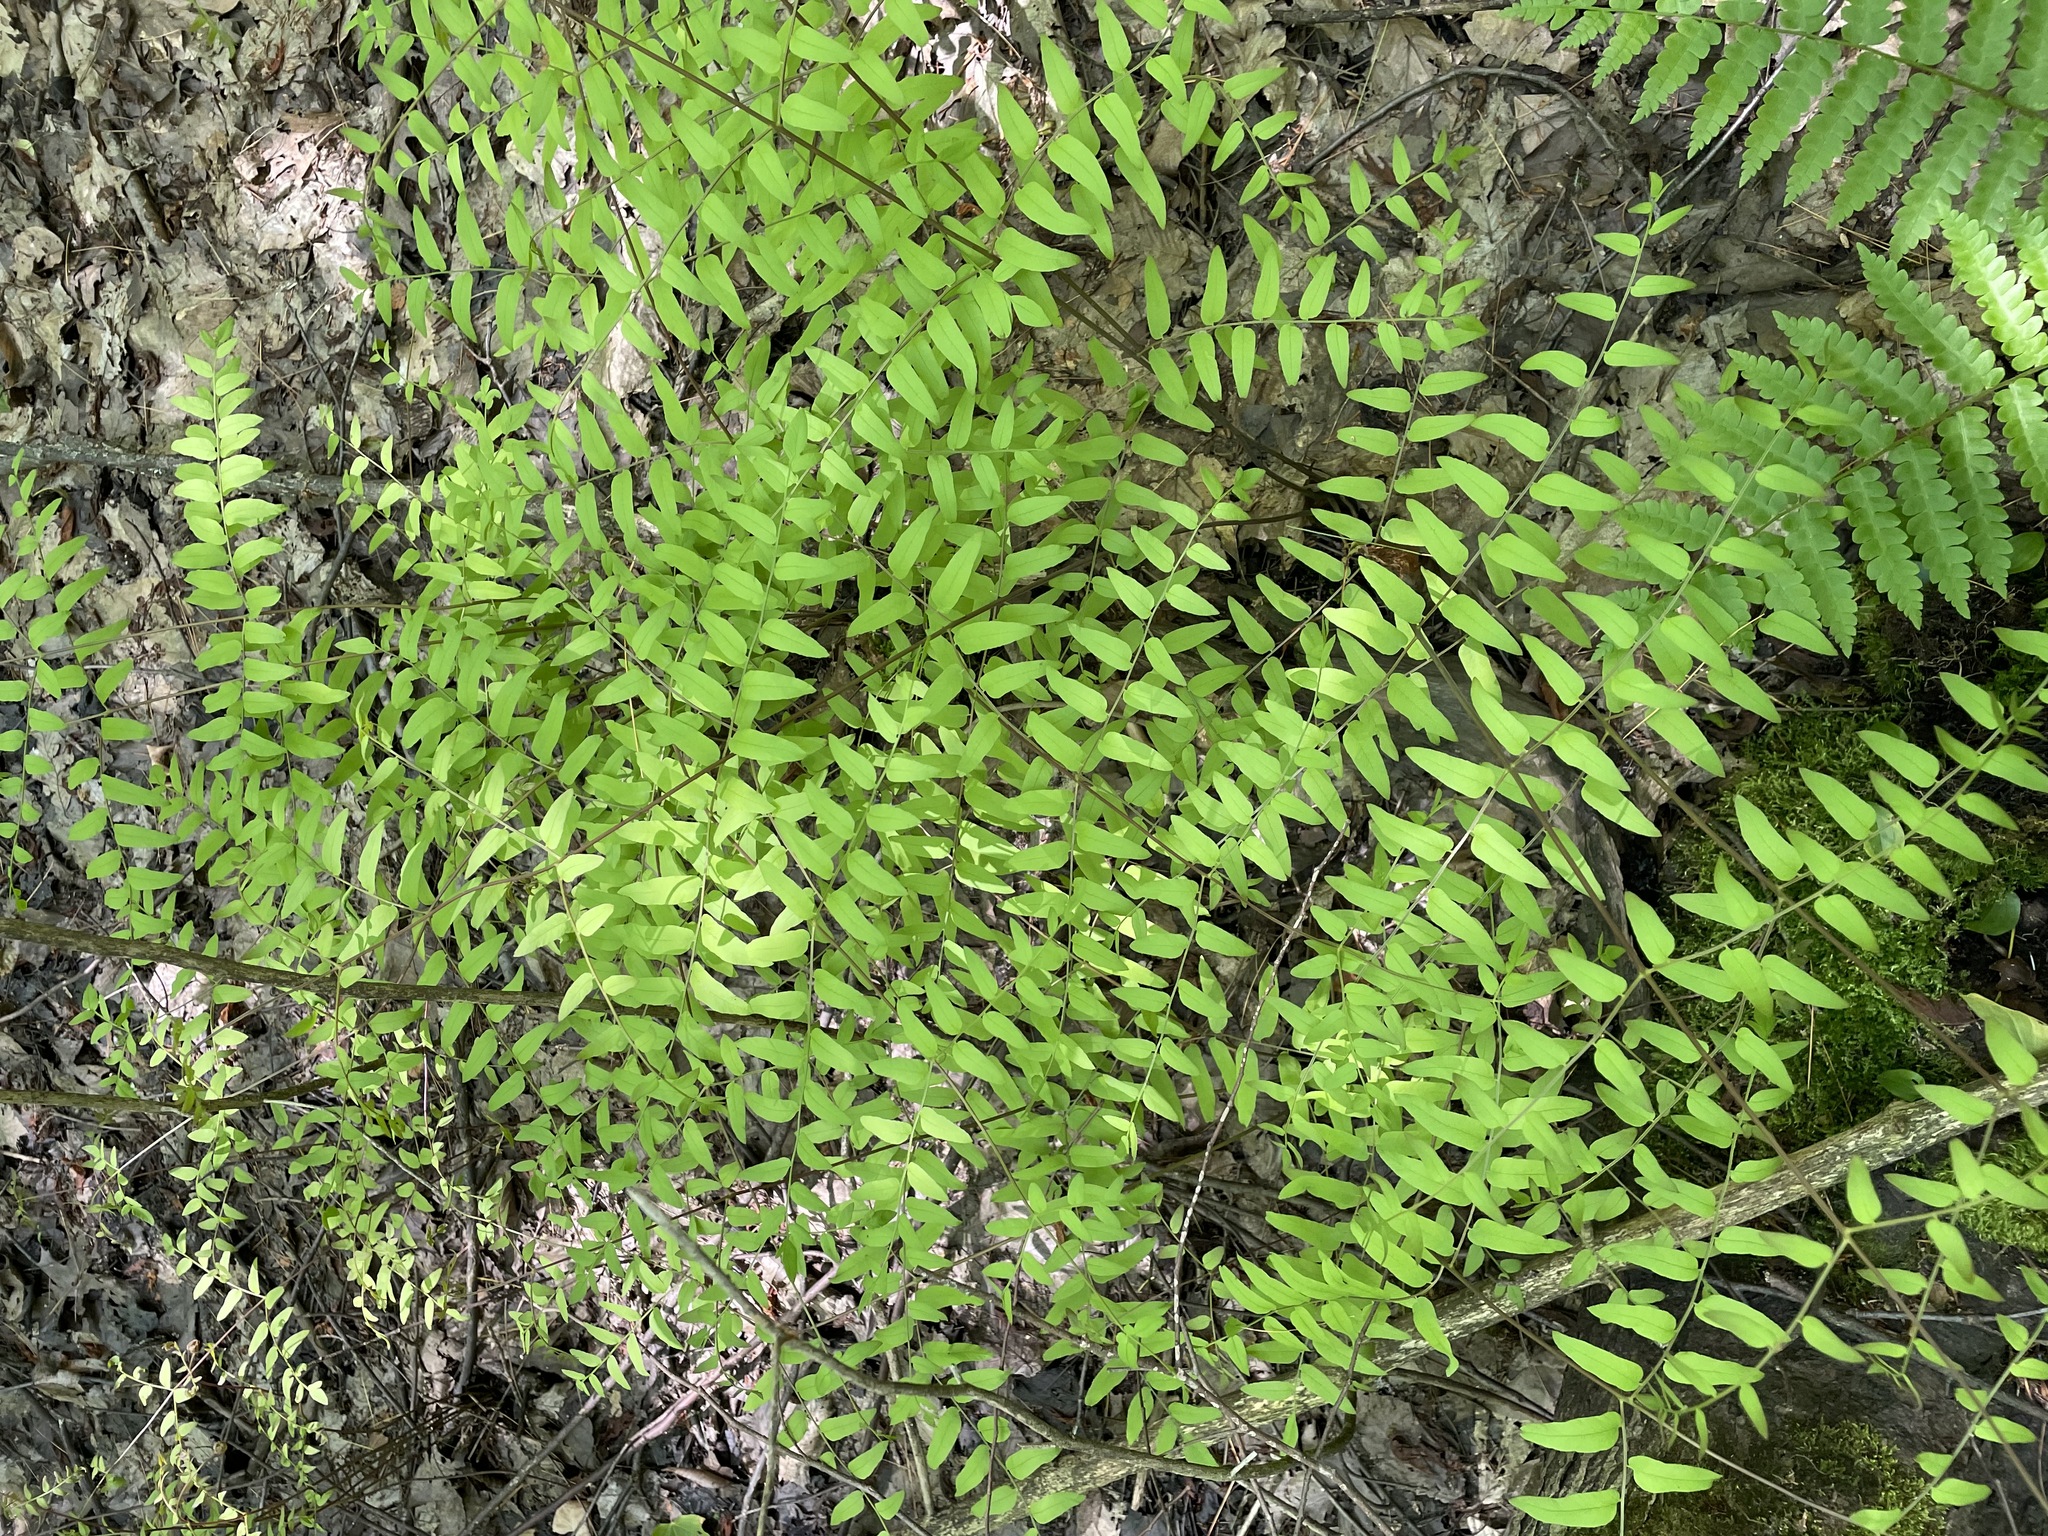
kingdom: Plantae
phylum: Tracheophyta
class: Polypodiopsida
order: Osmundales
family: Osmundaceae
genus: Osmunda
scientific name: Osmunda spectabilis
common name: American royal fern
